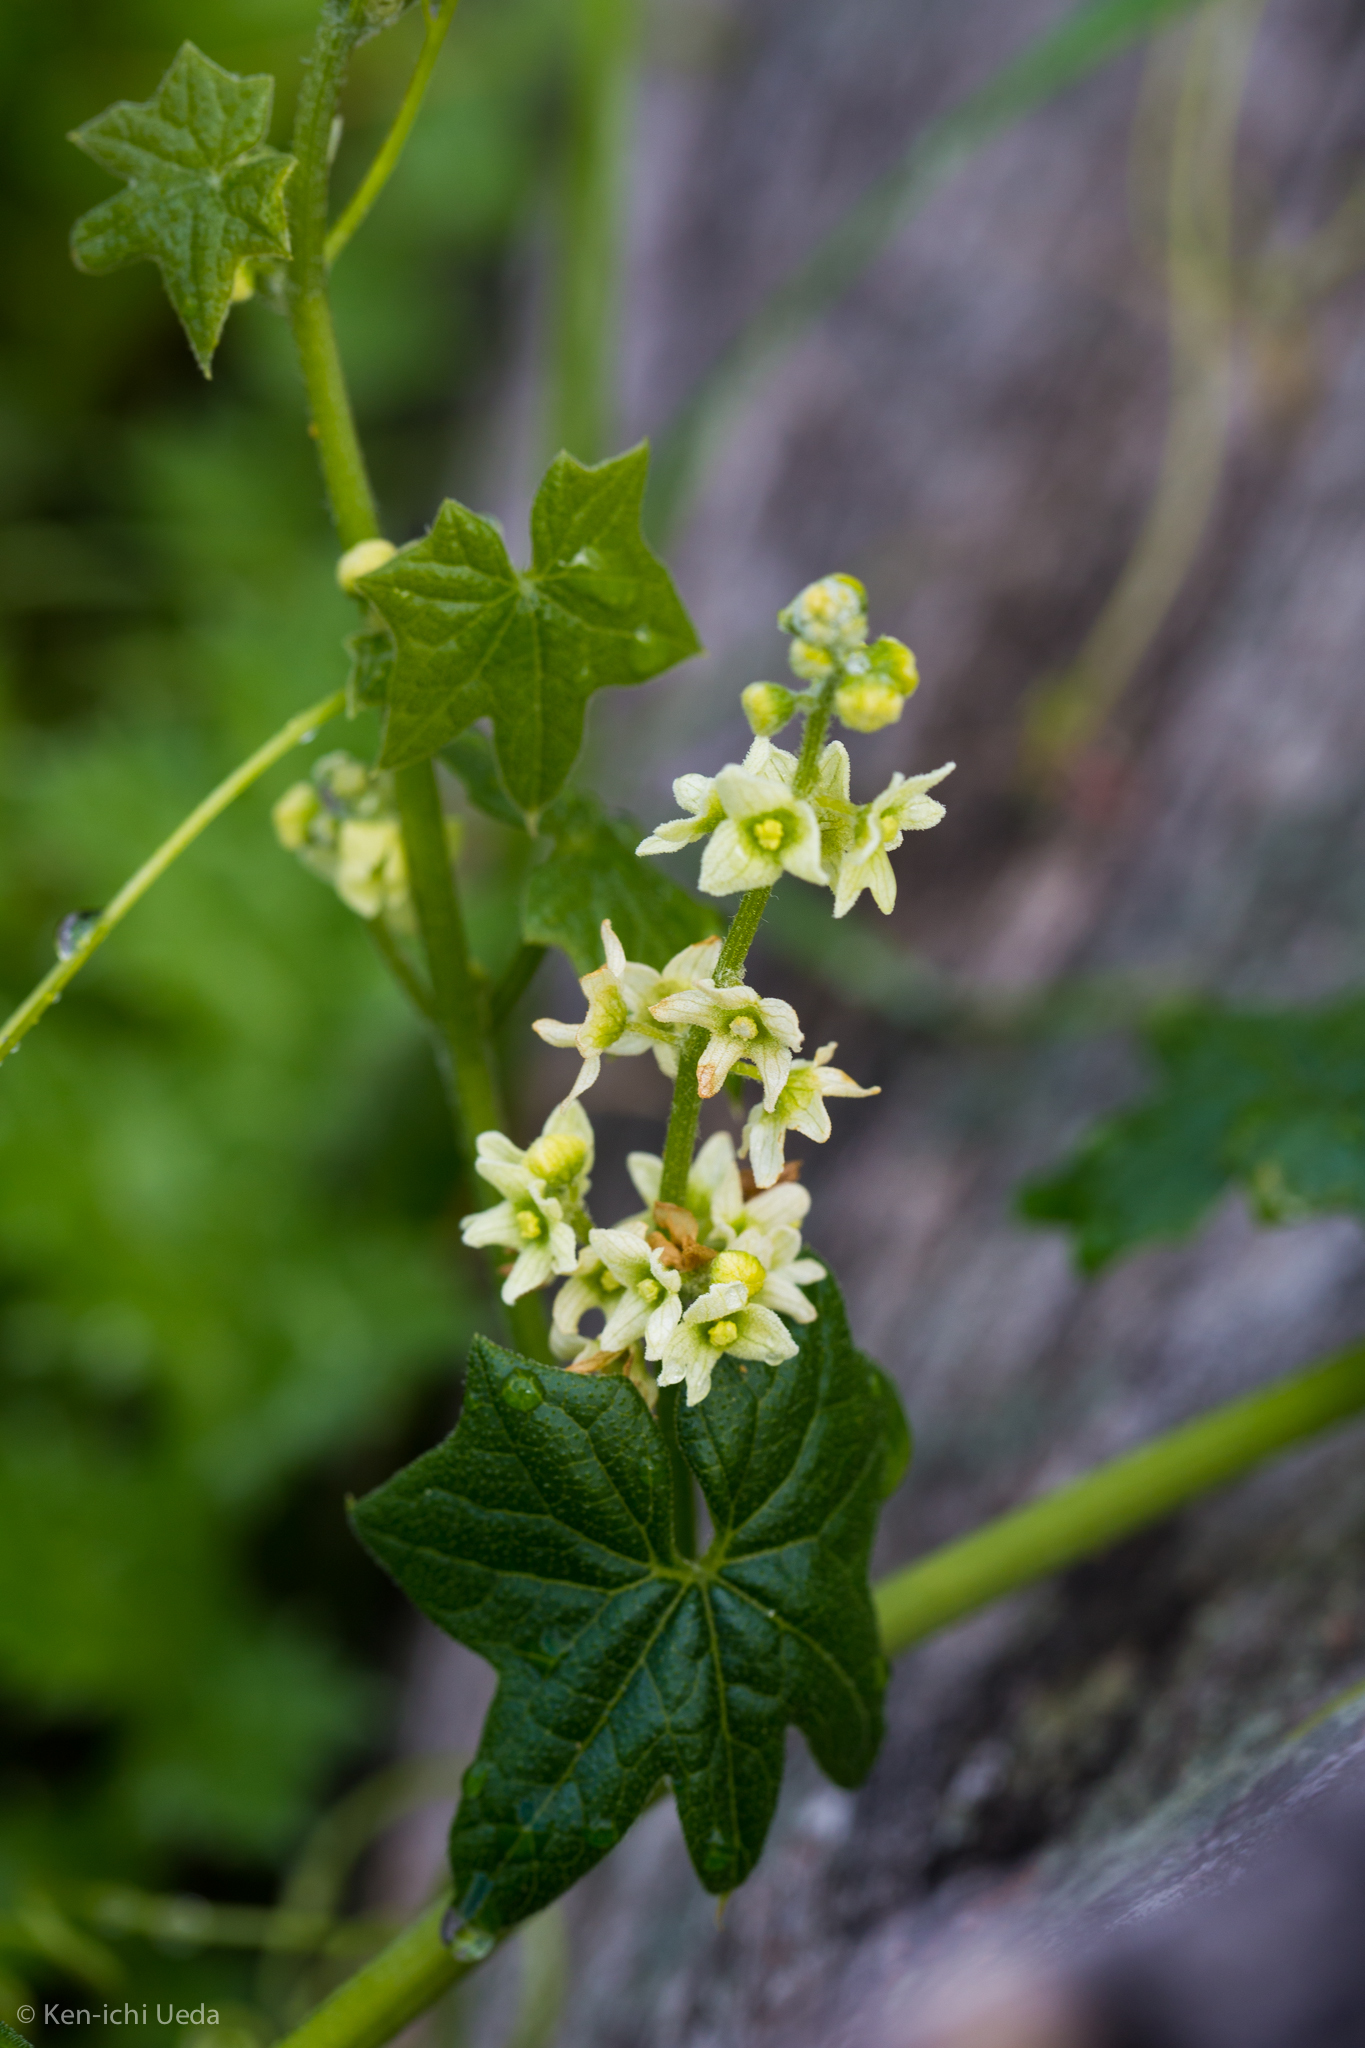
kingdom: Plantae
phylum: Tracheophyta
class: Magnoliopsida
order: Cucurbitales
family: Cucurbitaceae
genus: Marah
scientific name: Marah fabacea
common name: California manroot
